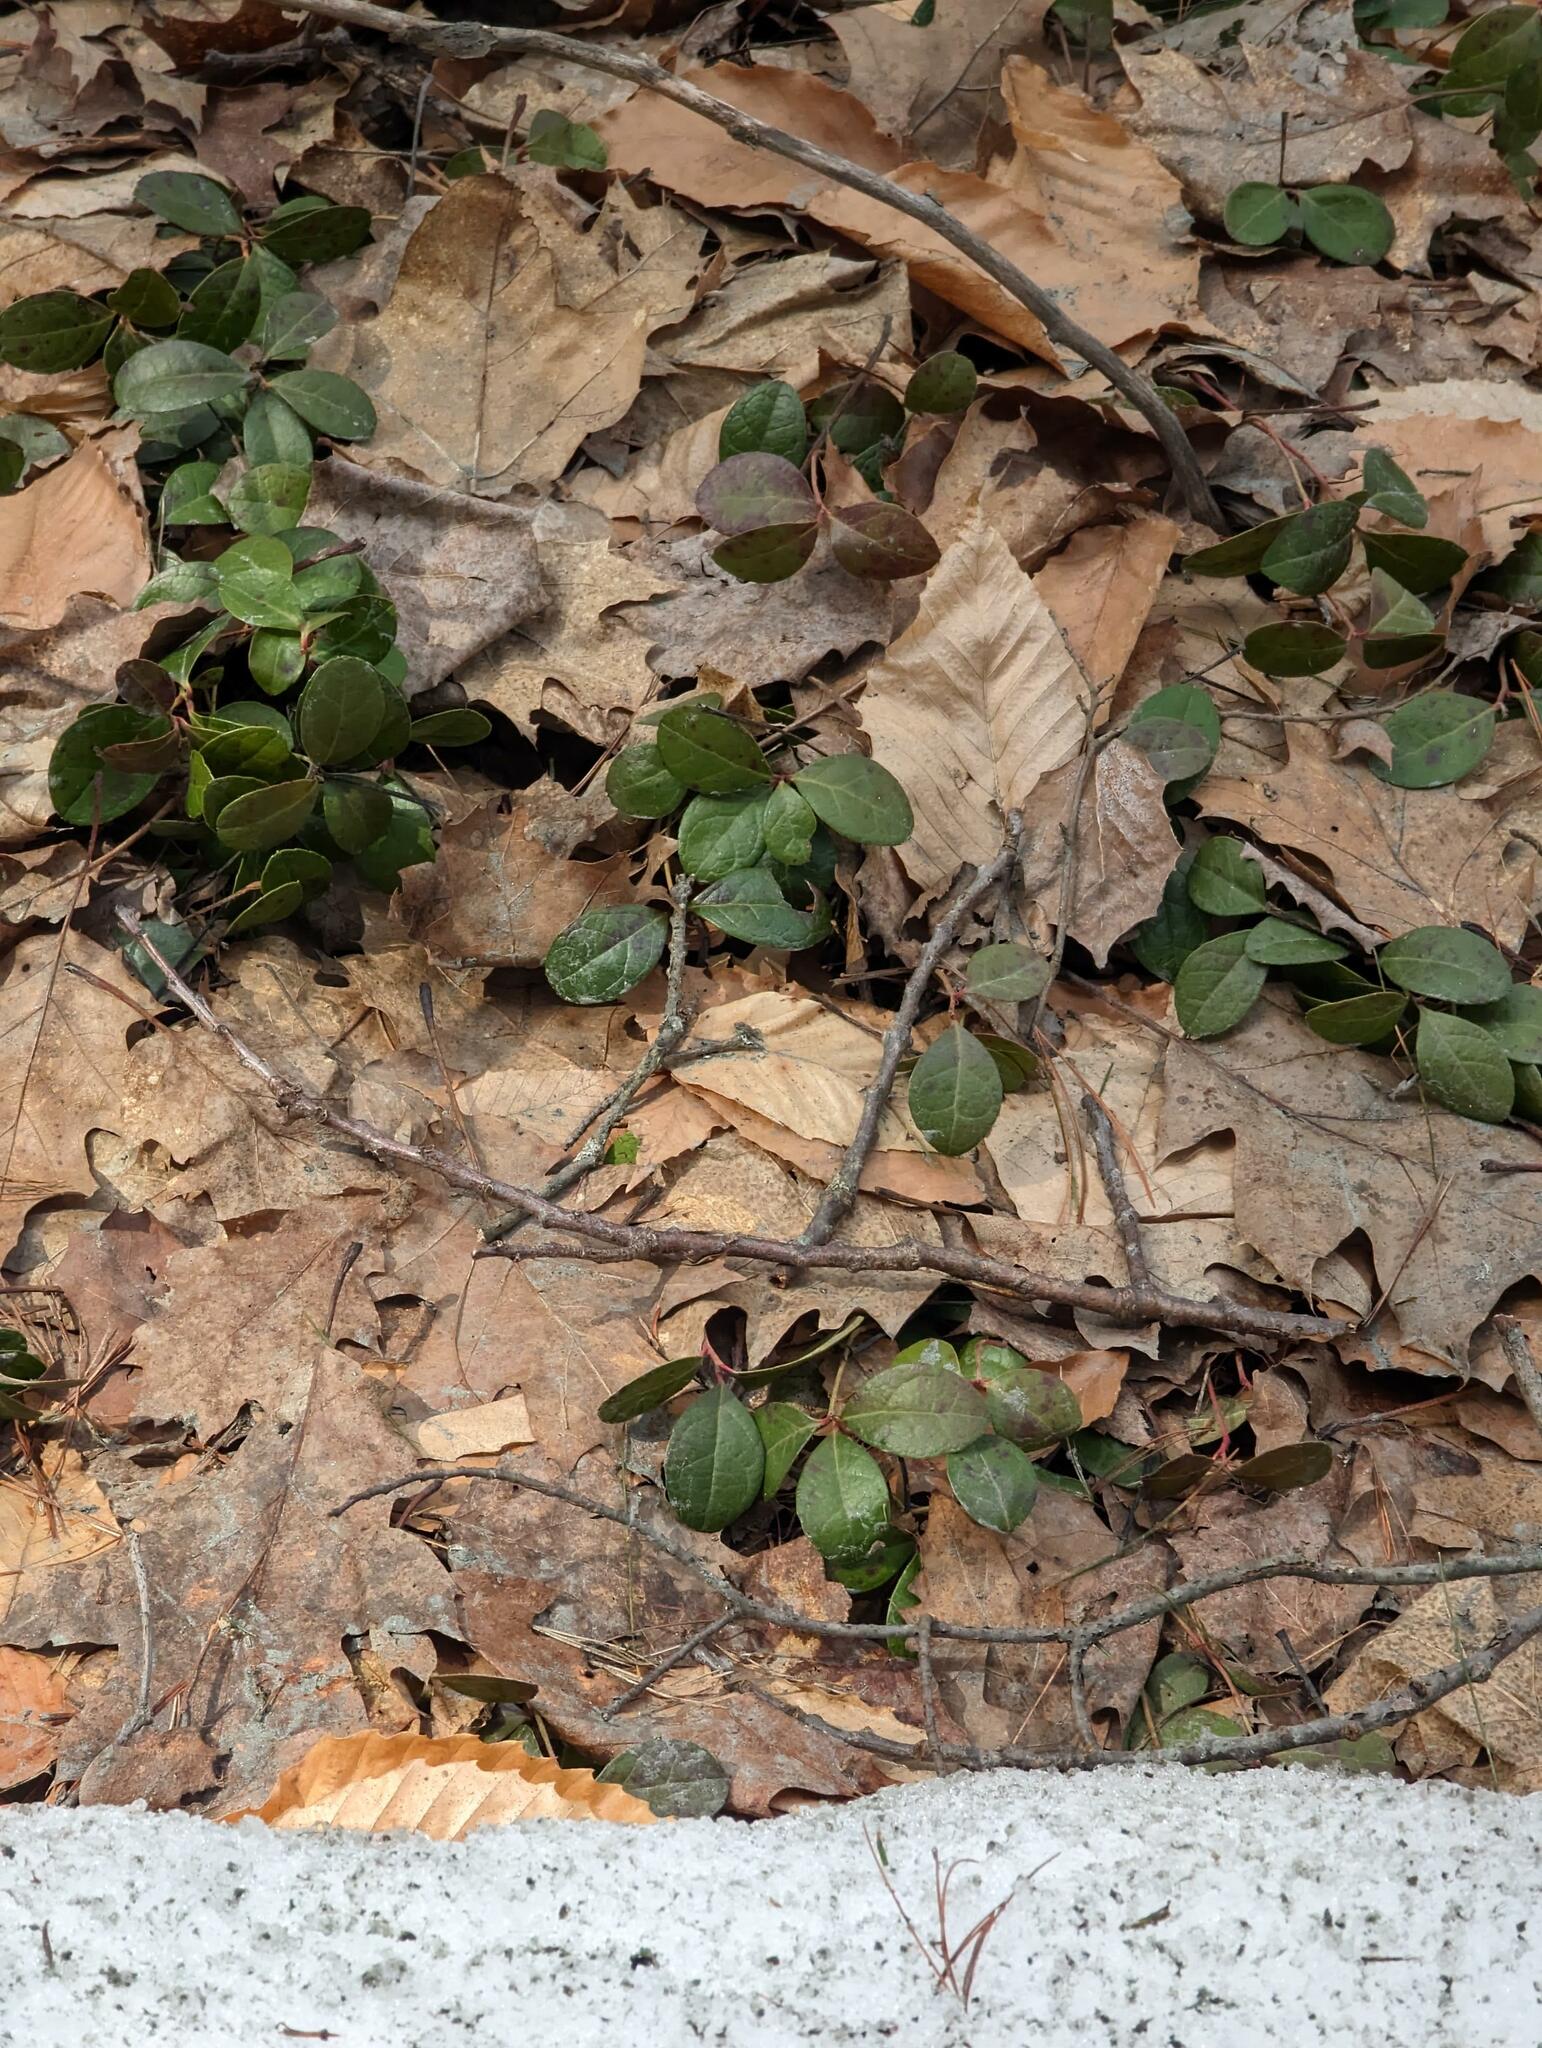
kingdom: Plantae
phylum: Tracheophyta
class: Magnoliopsida
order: Ericales
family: Ericaceae
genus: Gaultheria
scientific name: Gaultheria procumbens
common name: Checkerberry
